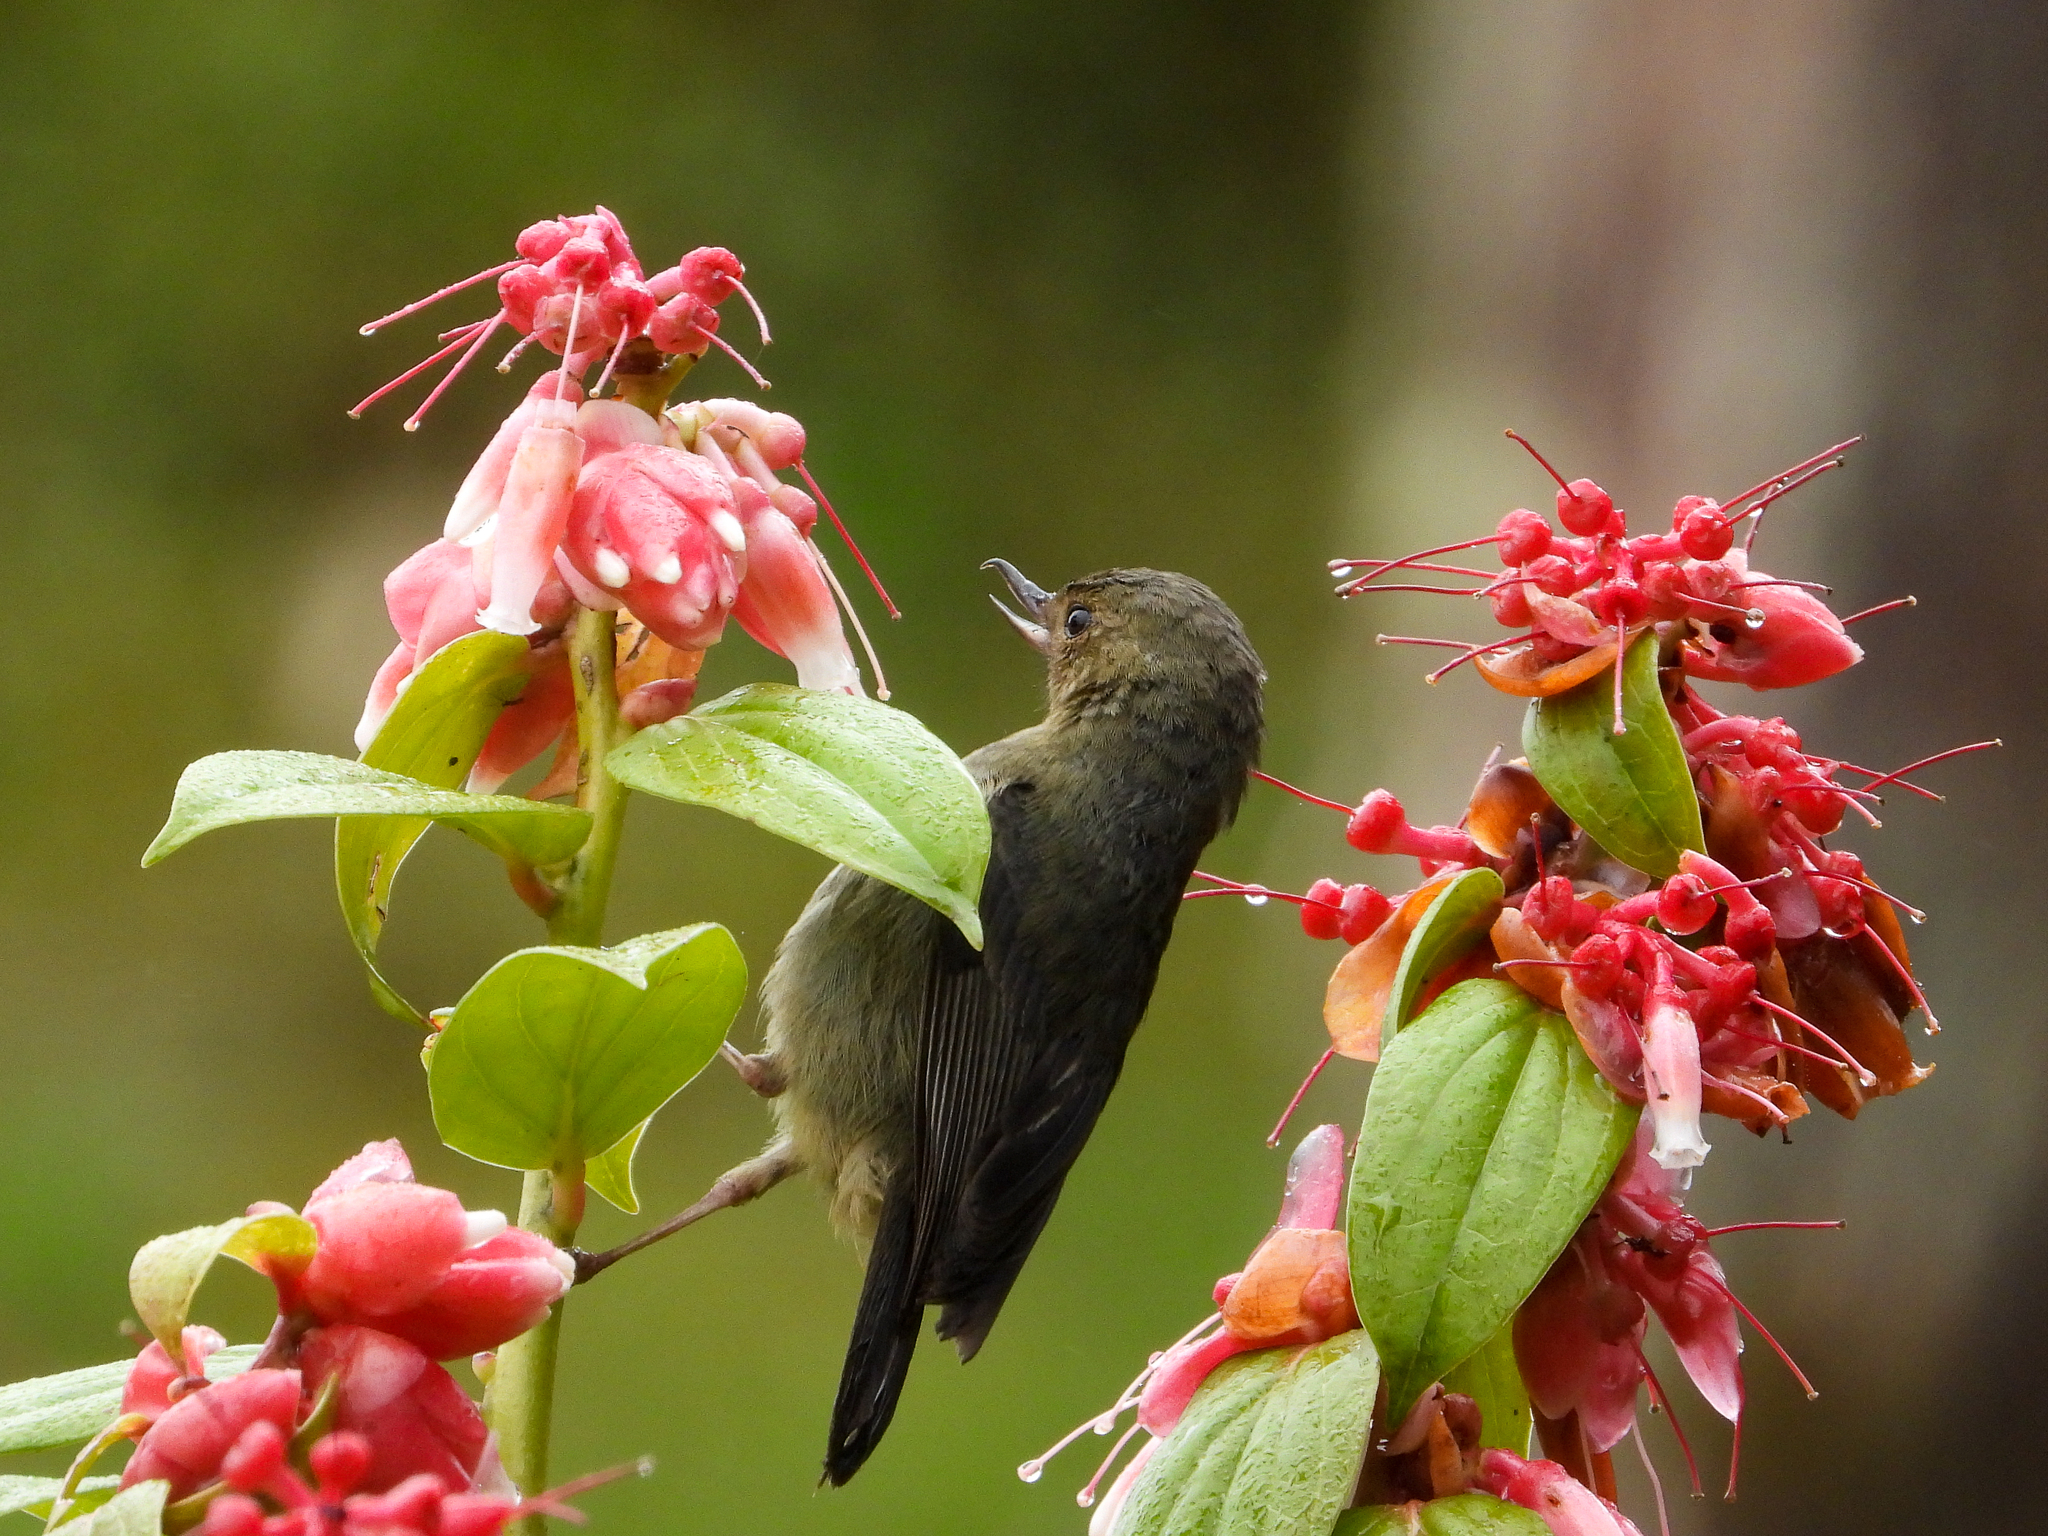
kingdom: Animalia
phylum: Chordata
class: Aves
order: Passeriformes
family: Thraupidae
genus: Diglossa
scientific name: Diglossa plumbea
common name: Slaty flowerpiercer
